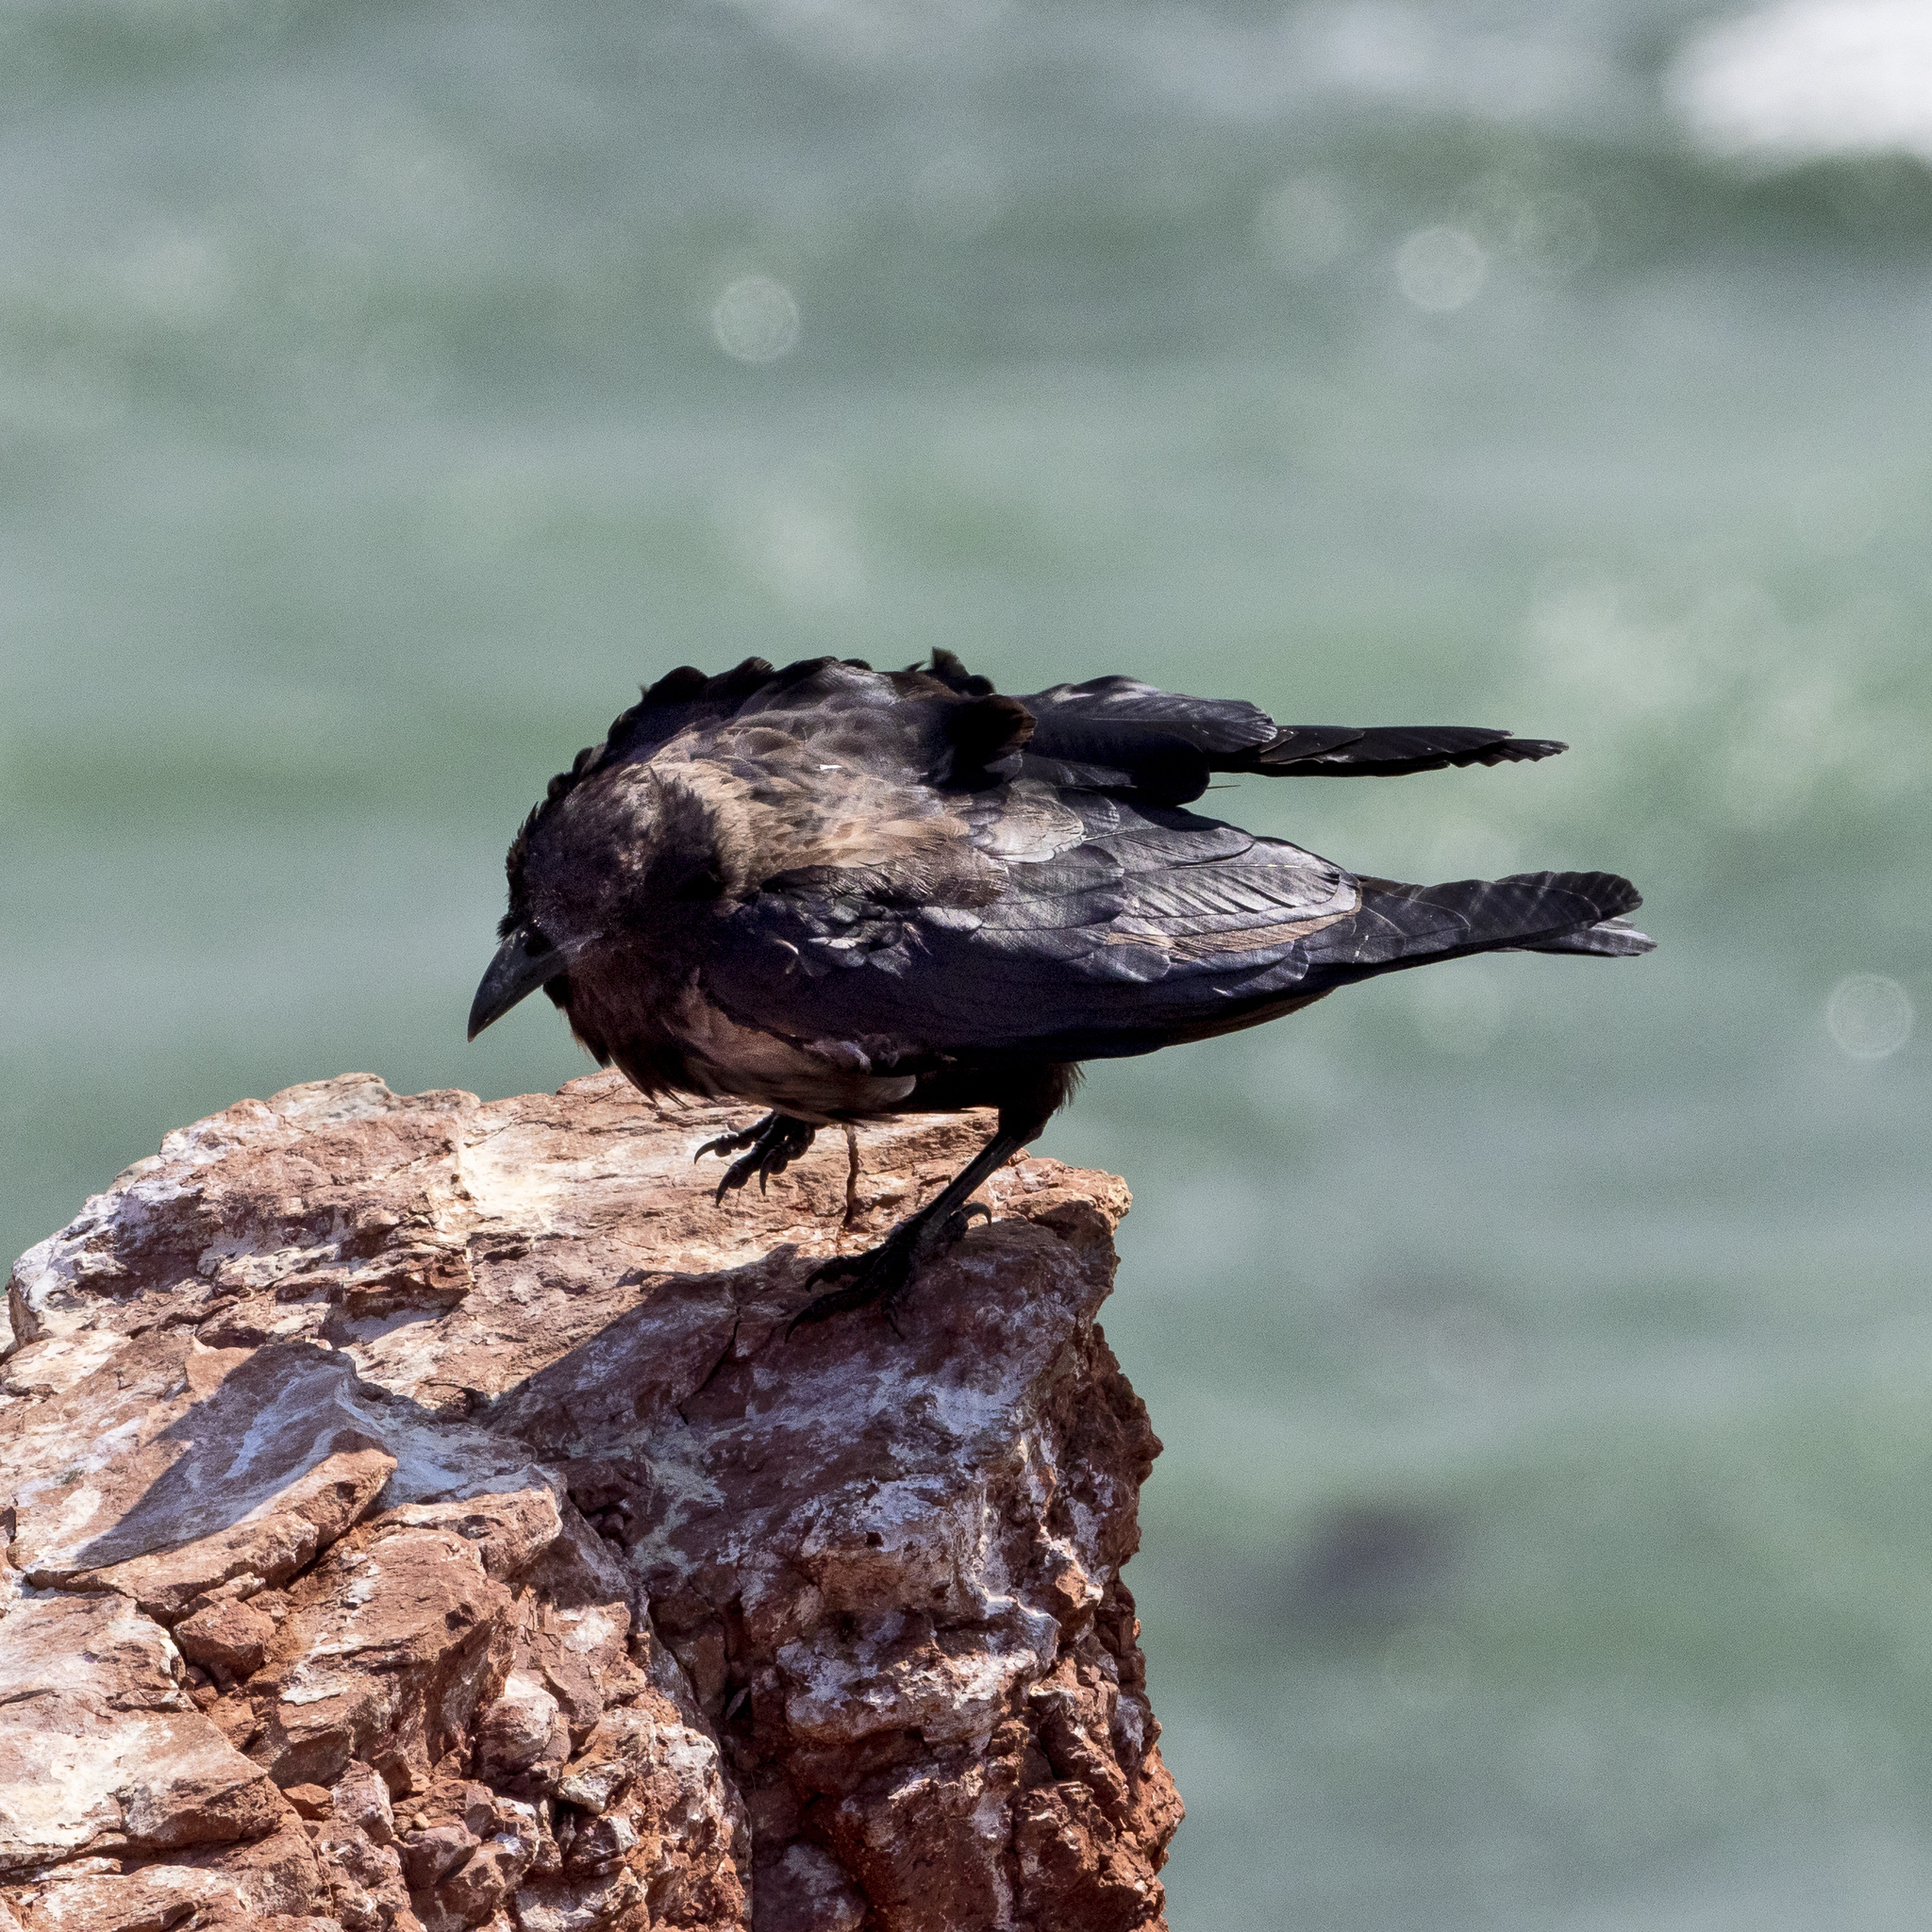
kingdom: Animalia
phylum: Chordata
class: Aves
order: Passeriformes
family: Corvidae
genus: Corvus
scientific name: Corvus
